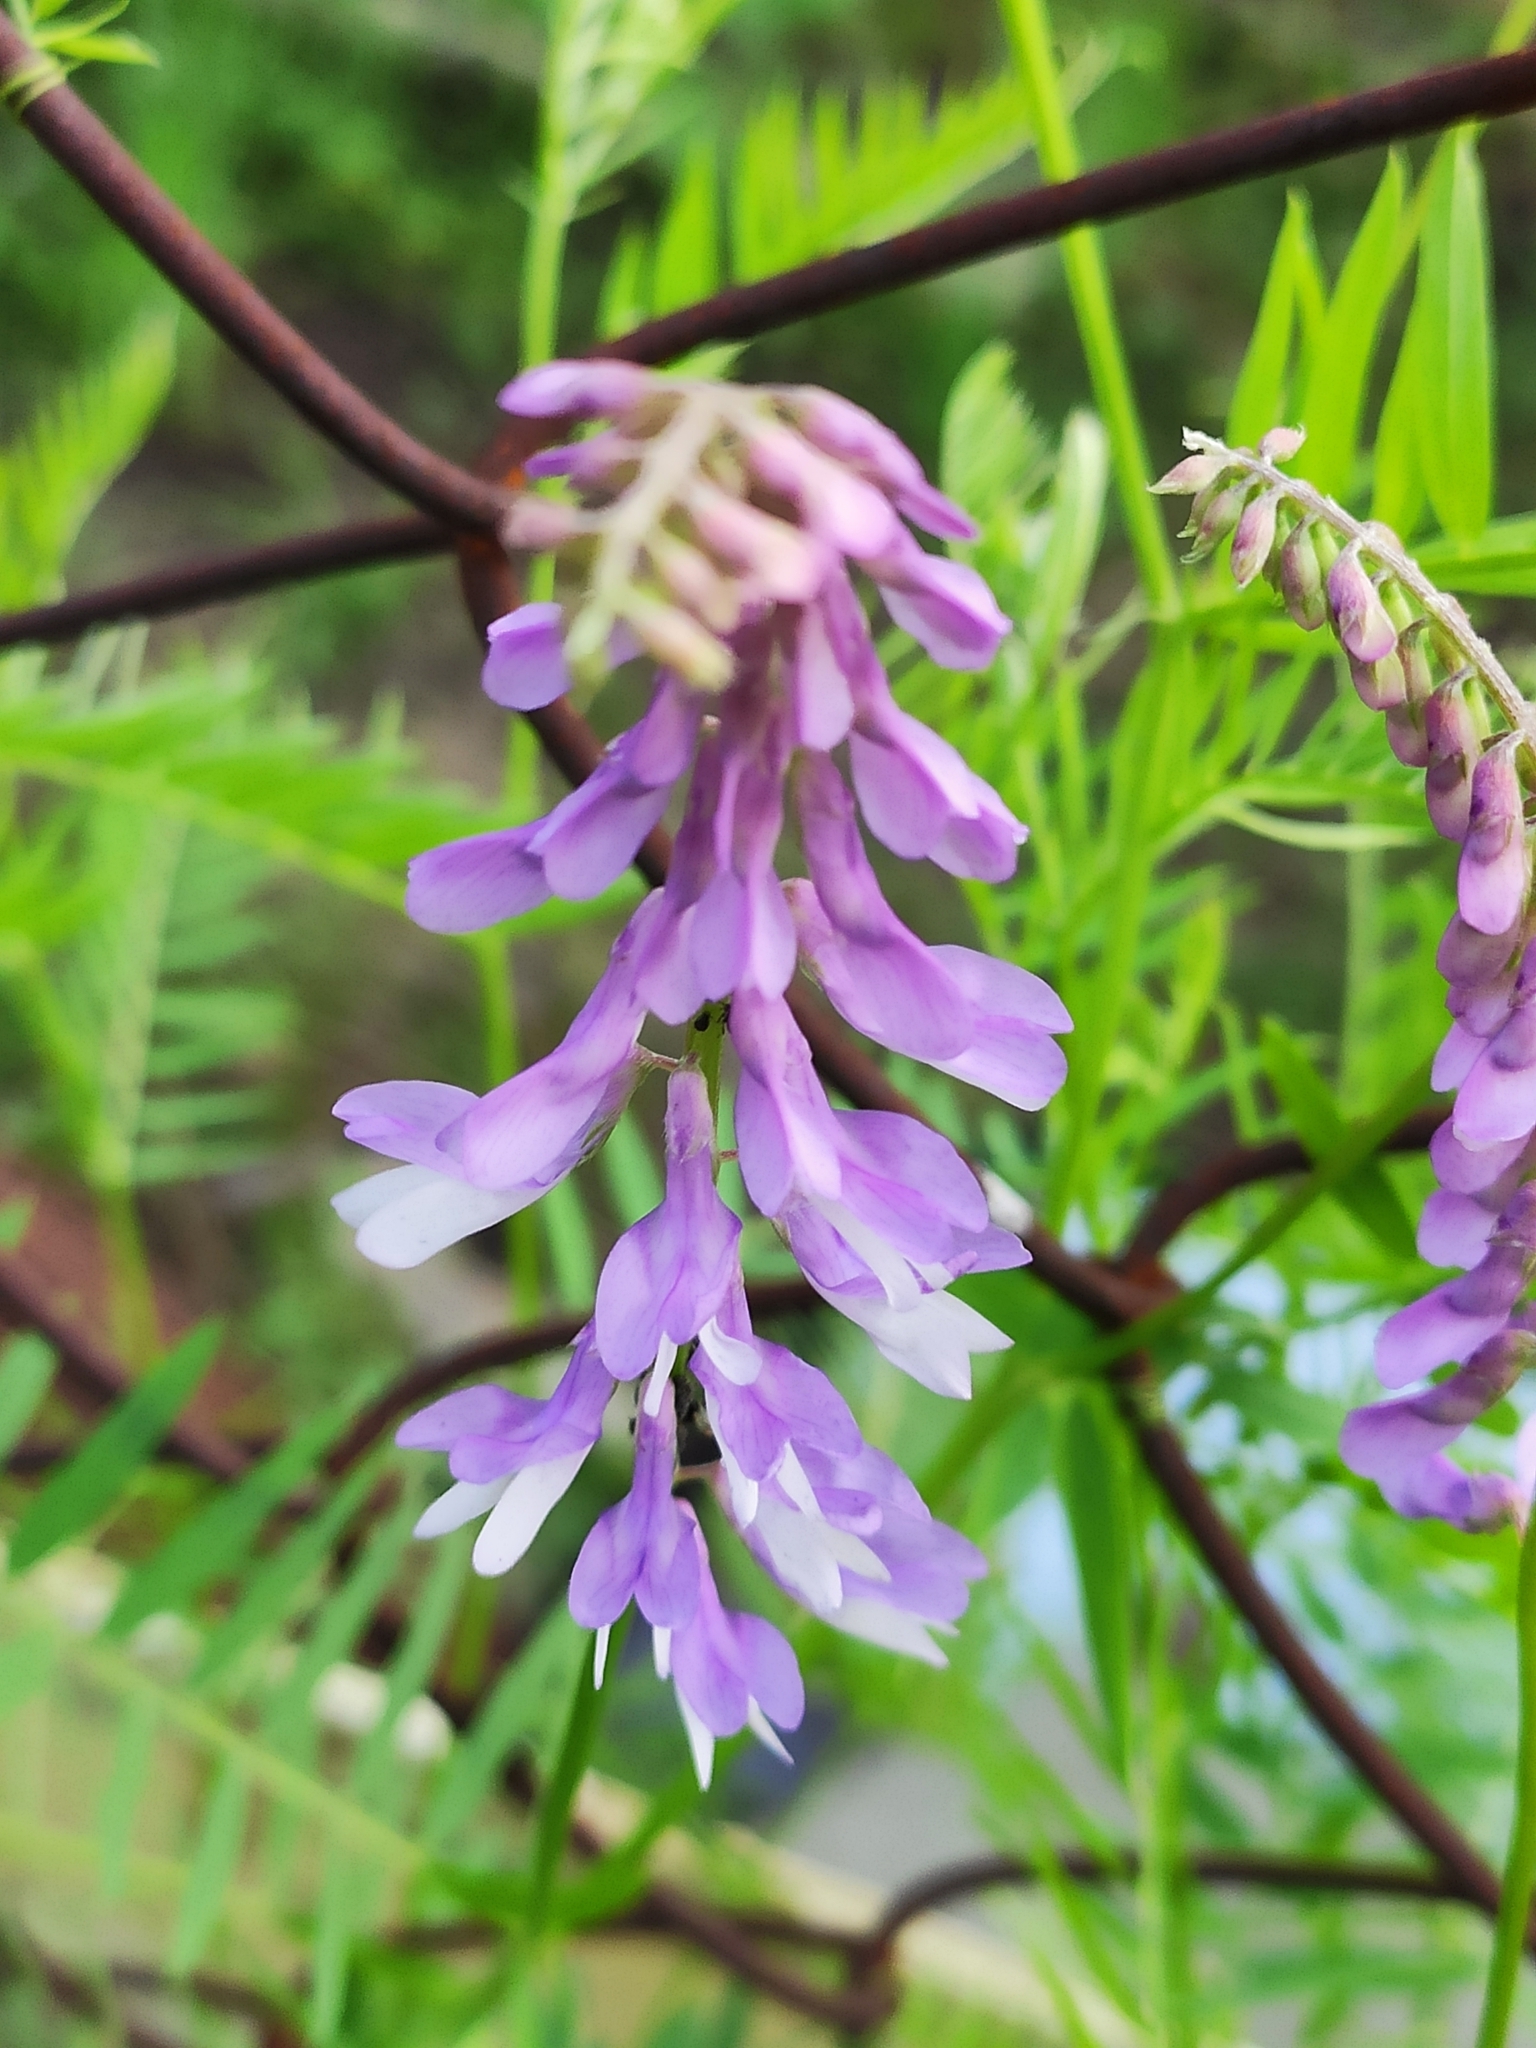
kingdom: Plantae
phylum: Tracheophyta
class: Magnoliopsida
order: Fabales
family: Fabaceae
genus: Vicia
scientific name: Vicia tenuifolia
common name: Fine-leaved vetch
